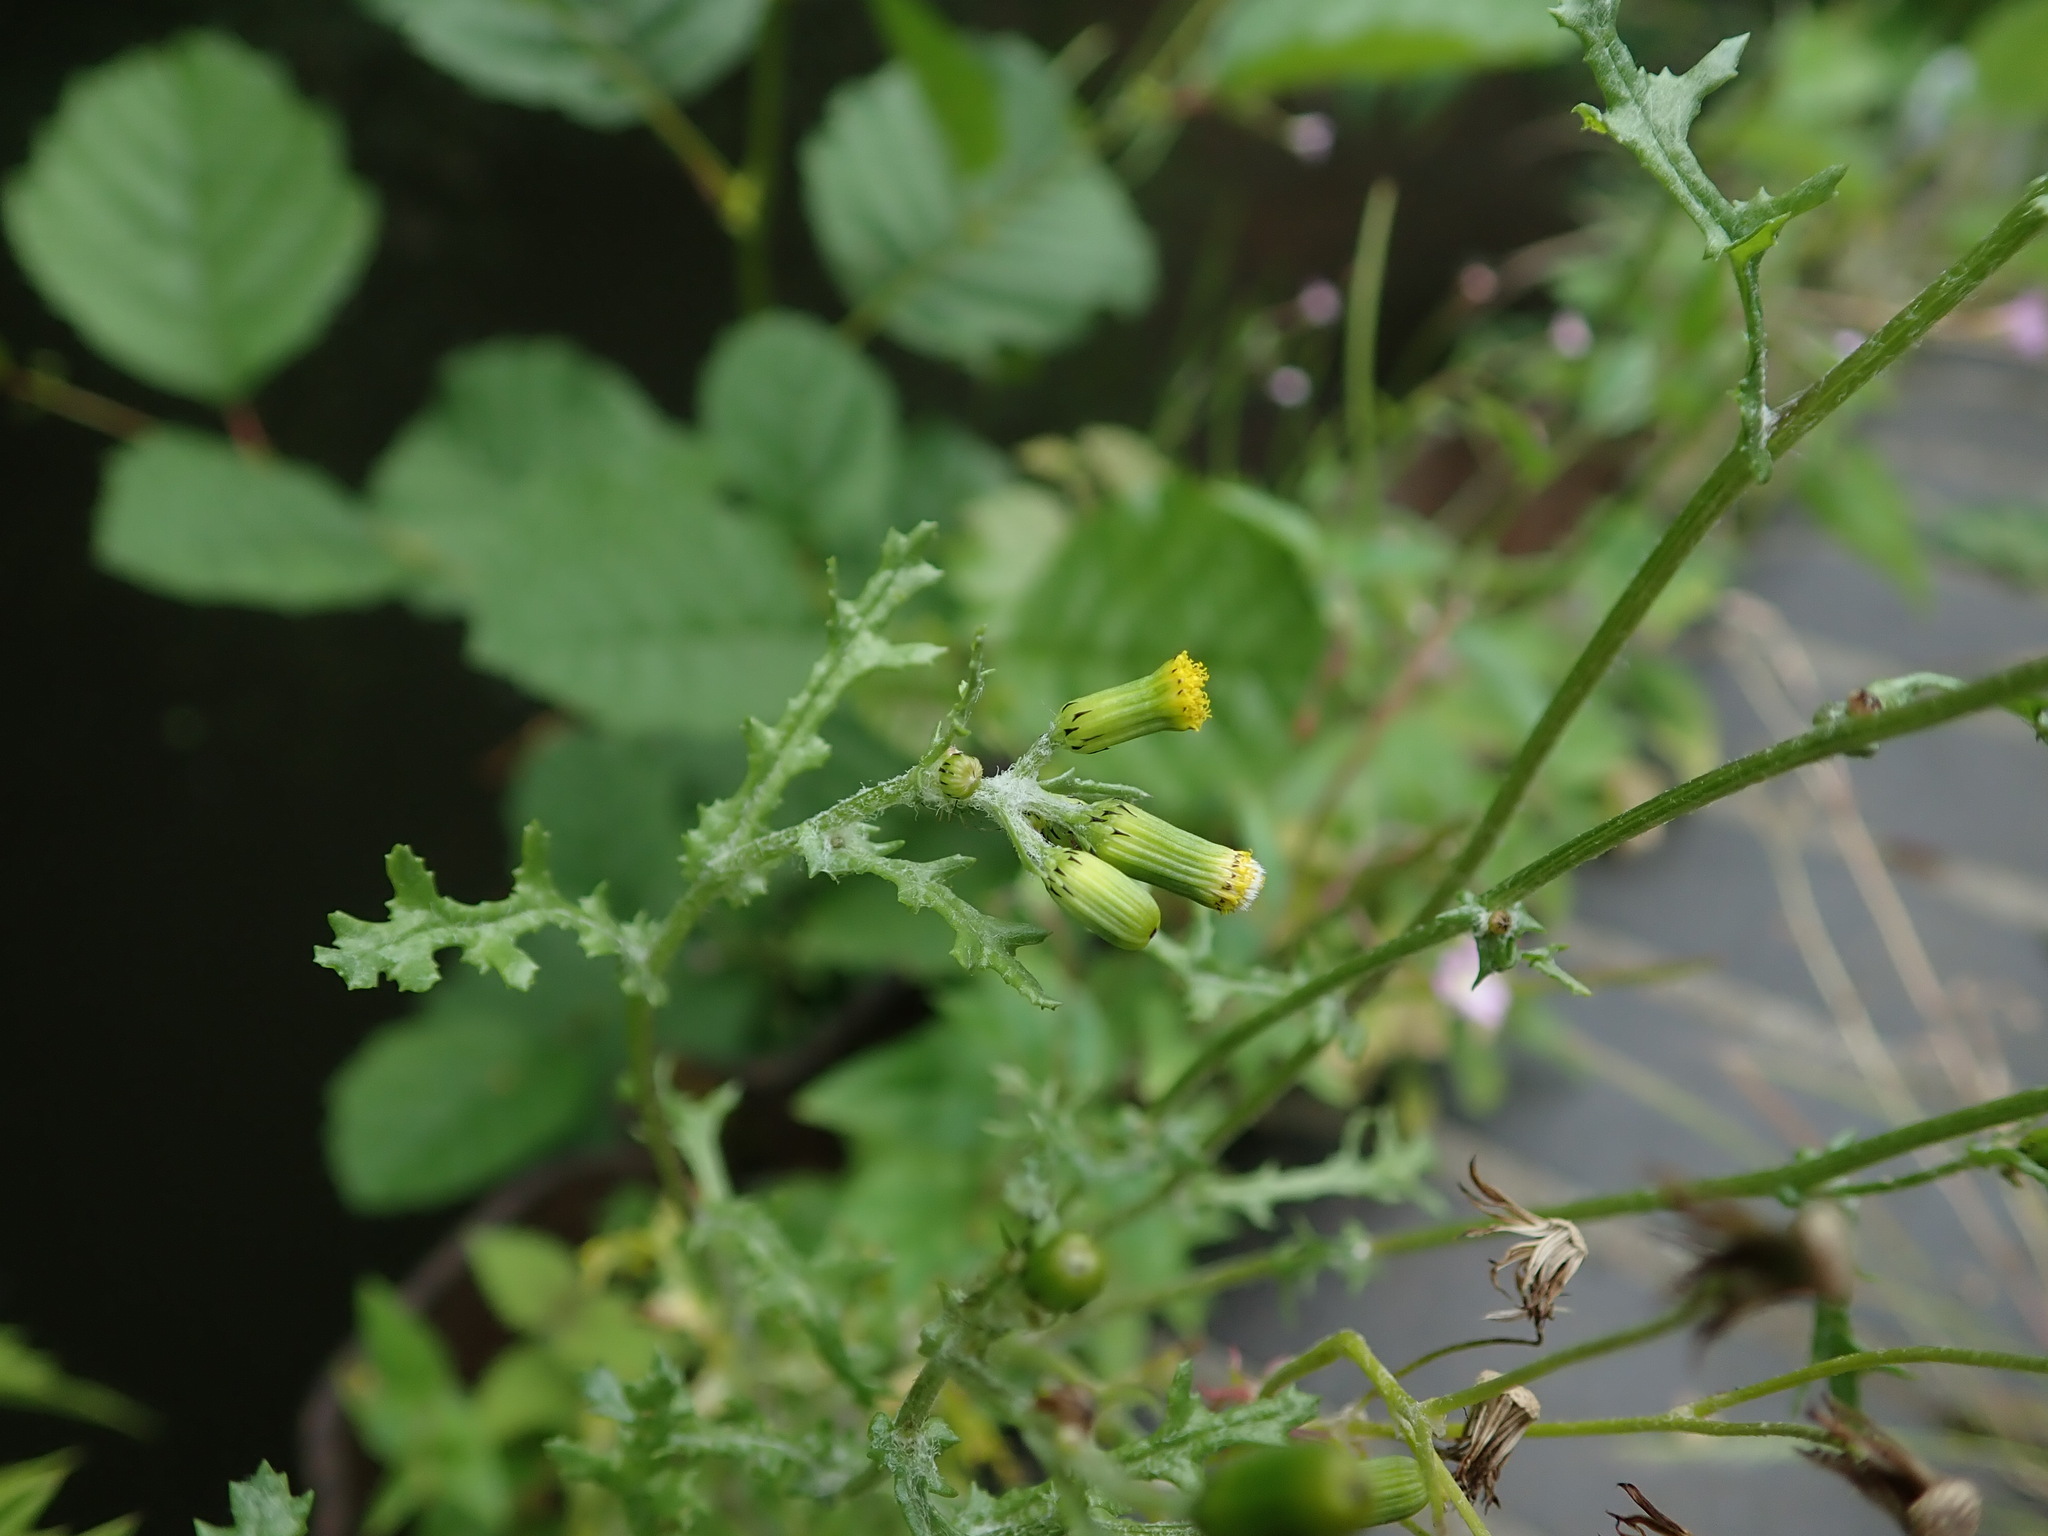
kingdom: Plantae
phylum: Tracheophyta
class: Magnoliopsida
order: Asterales
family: Asteraceae
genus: Senecio
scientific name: Senecio vulgaris
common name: Old-man-in-the-spring
